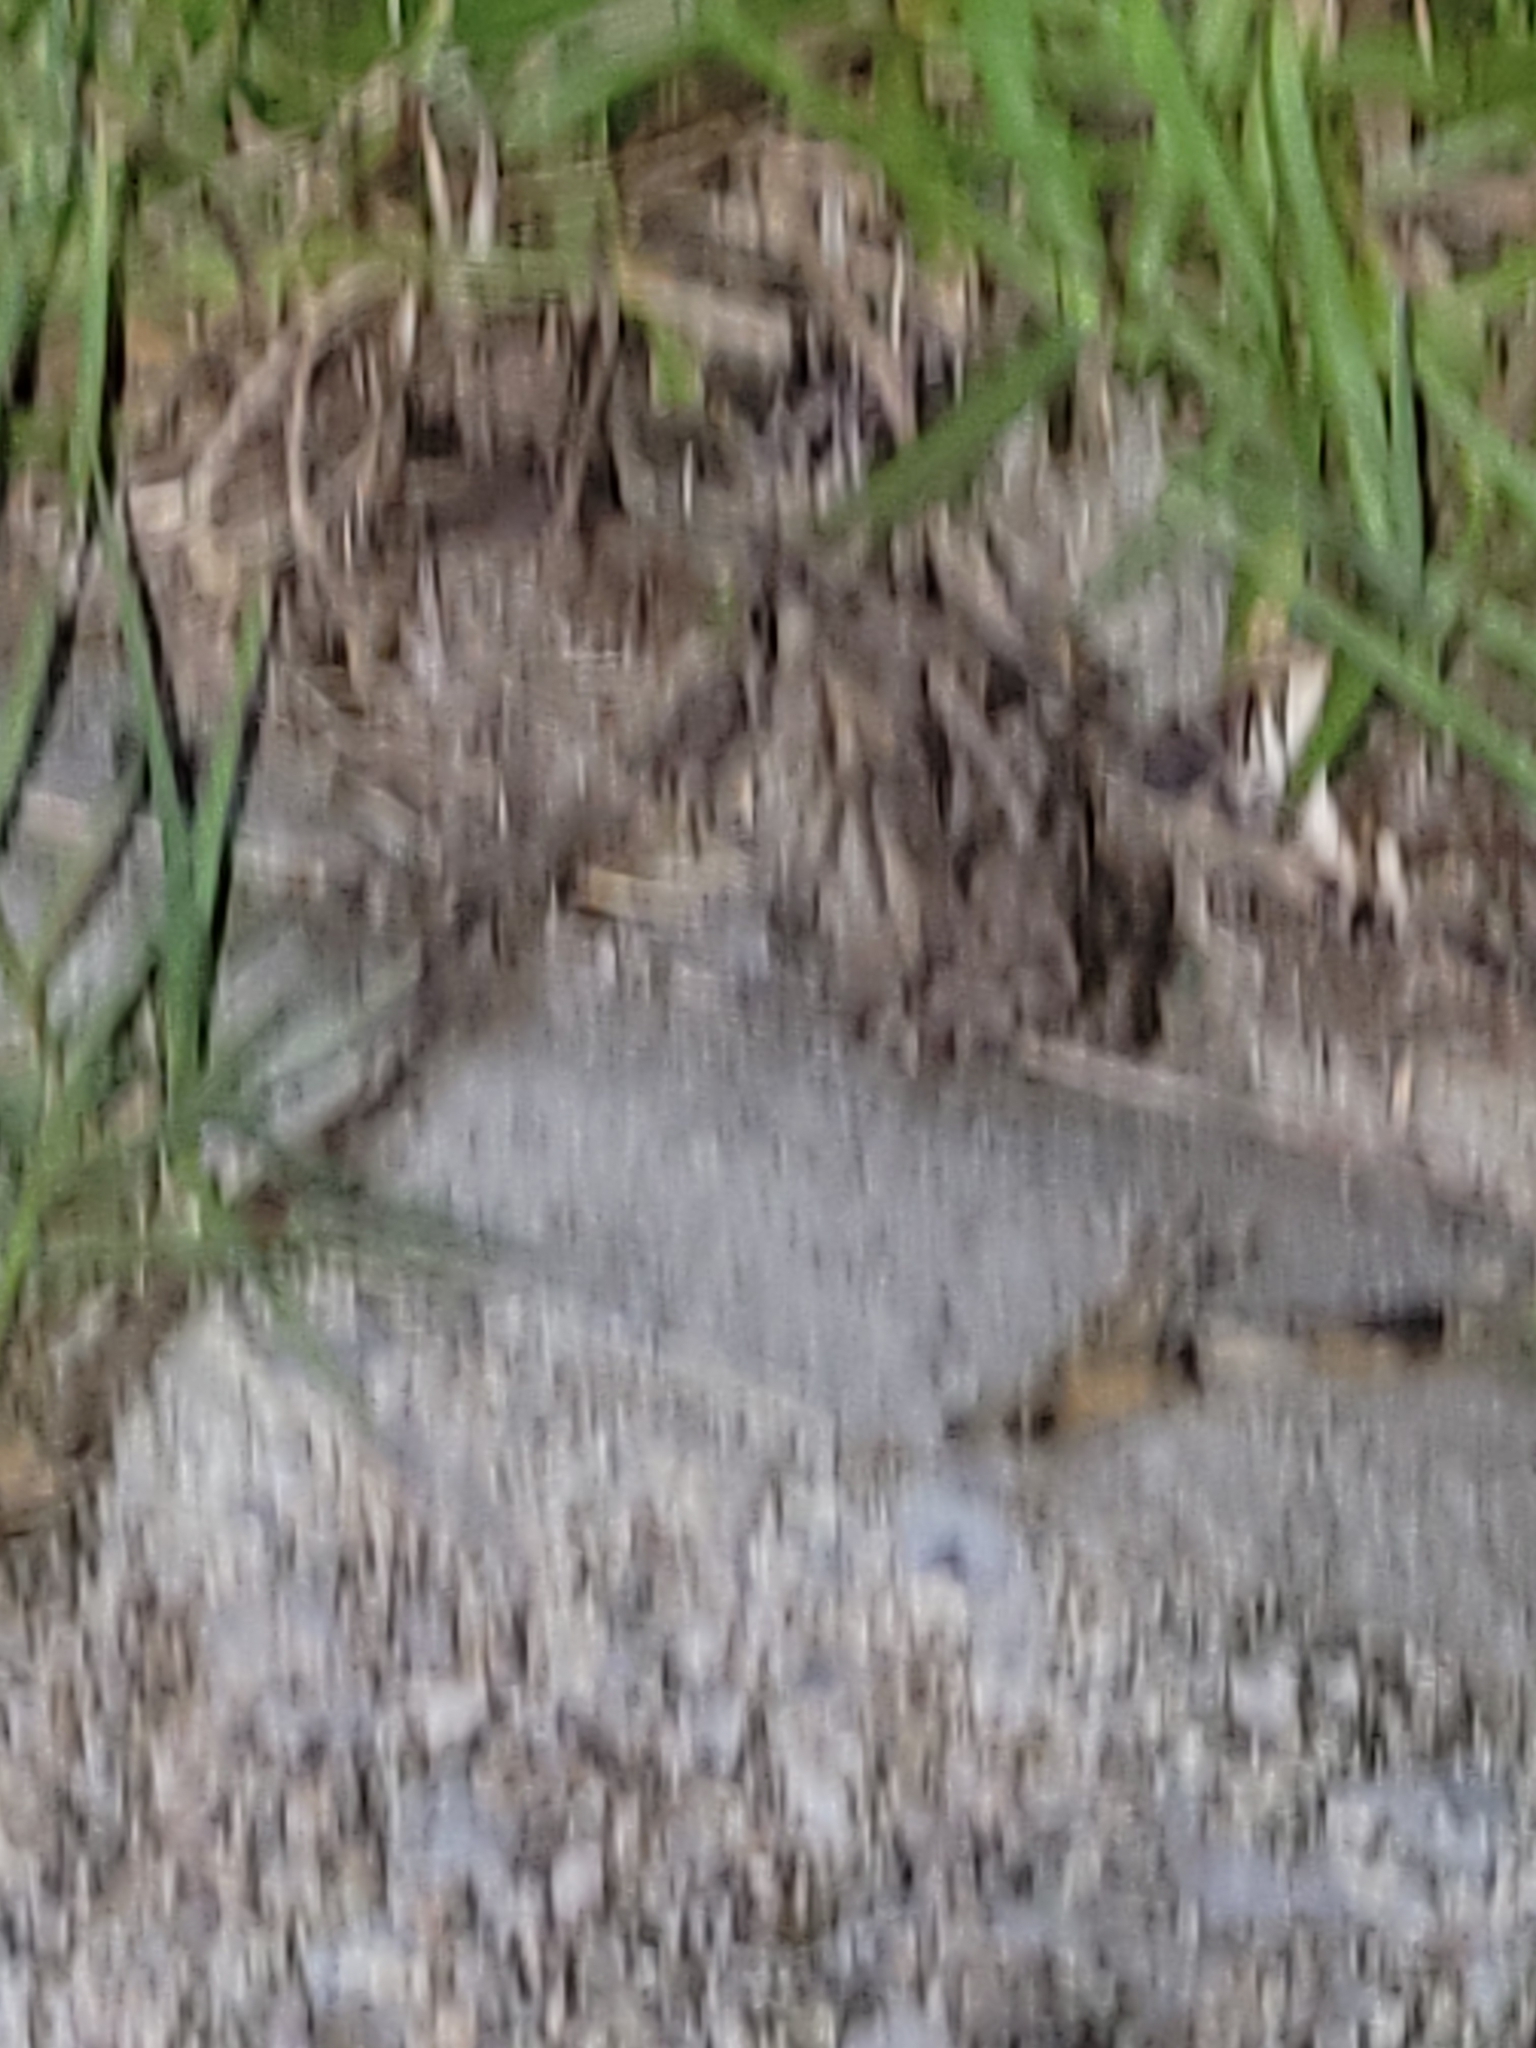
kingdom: Animalia
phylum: Chordata
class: Amphibia
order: Anura
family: Bufonidae
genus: Anaxyrus
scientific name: Anaxyrus terrestris
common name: Southern toad
